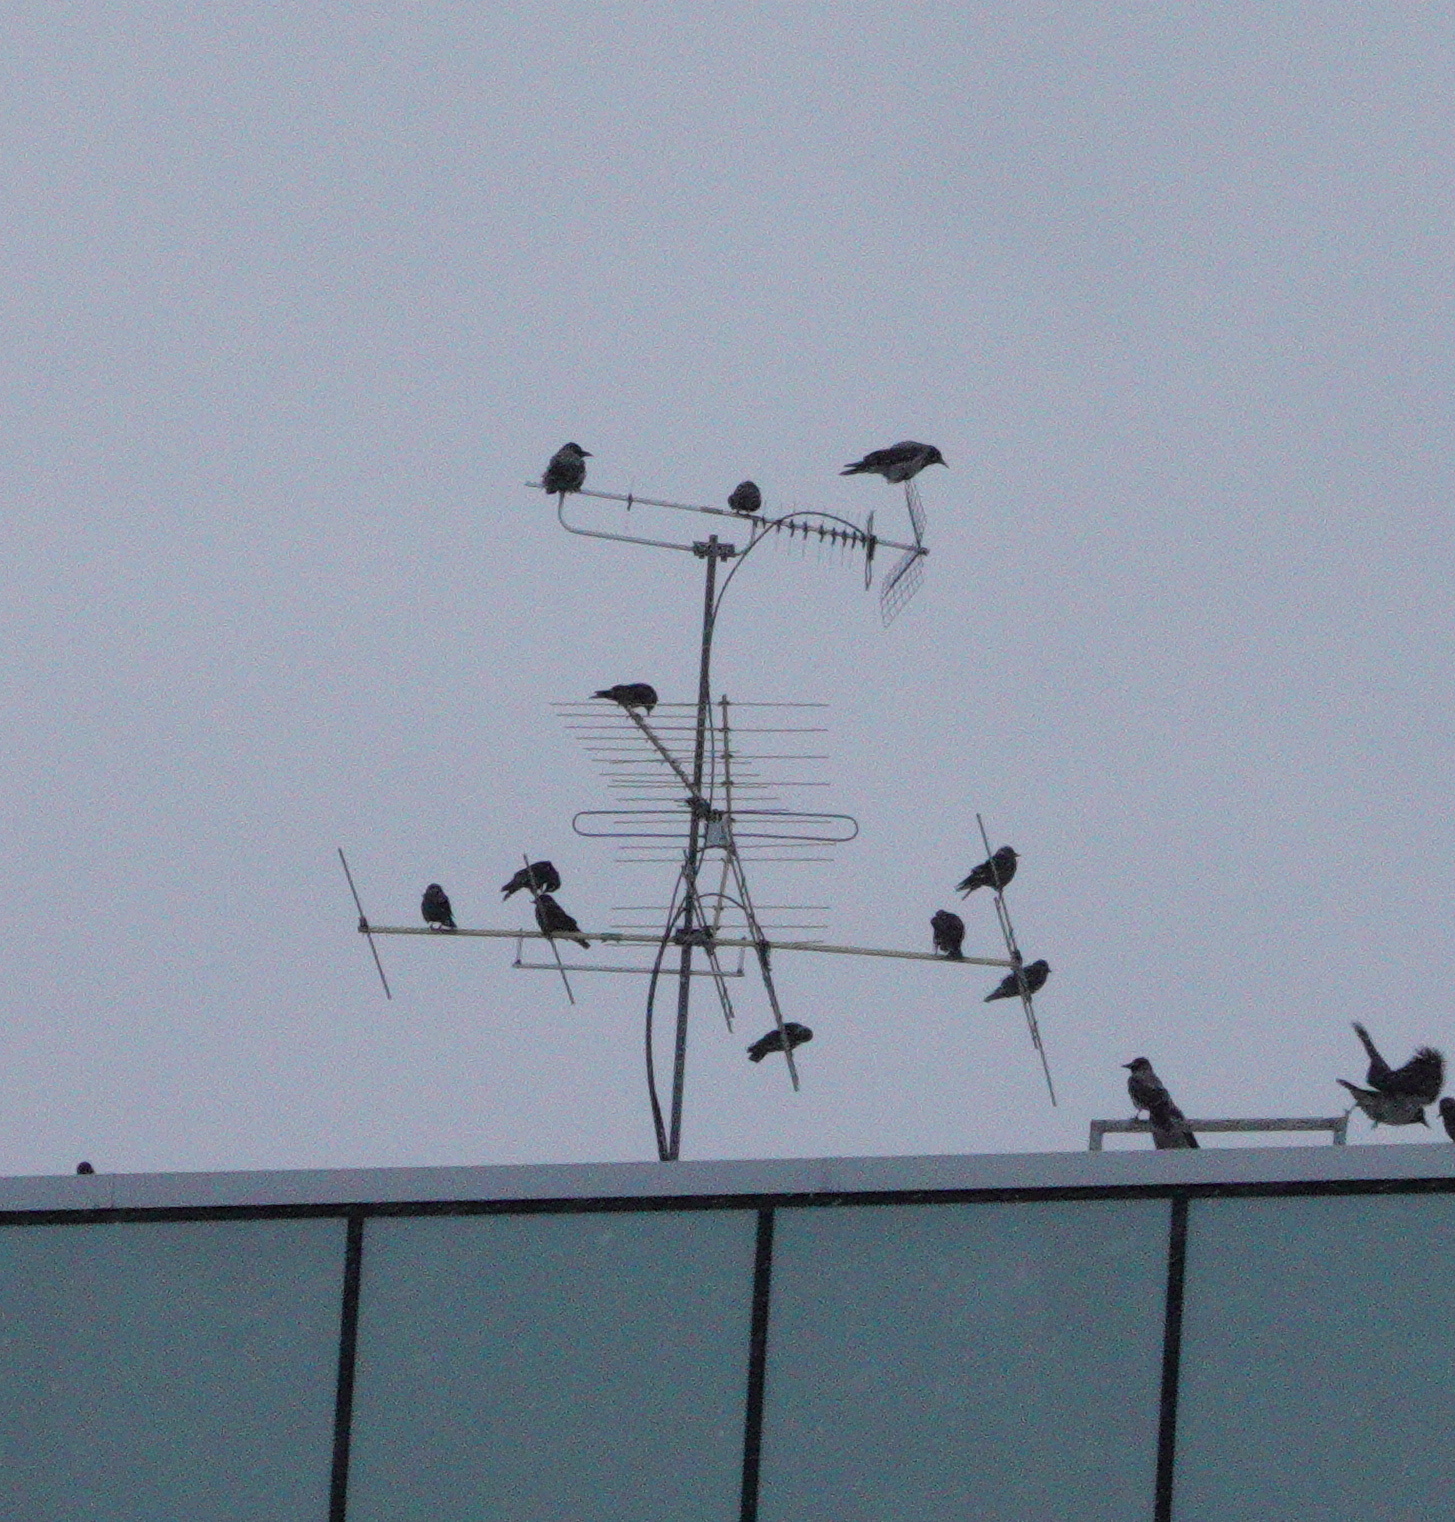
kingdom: Animalia
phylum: Chordata
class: Aves
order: Passeriformes
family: Corvidae
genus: Corvus
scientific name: Corvus cornix
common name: Hooded crow
